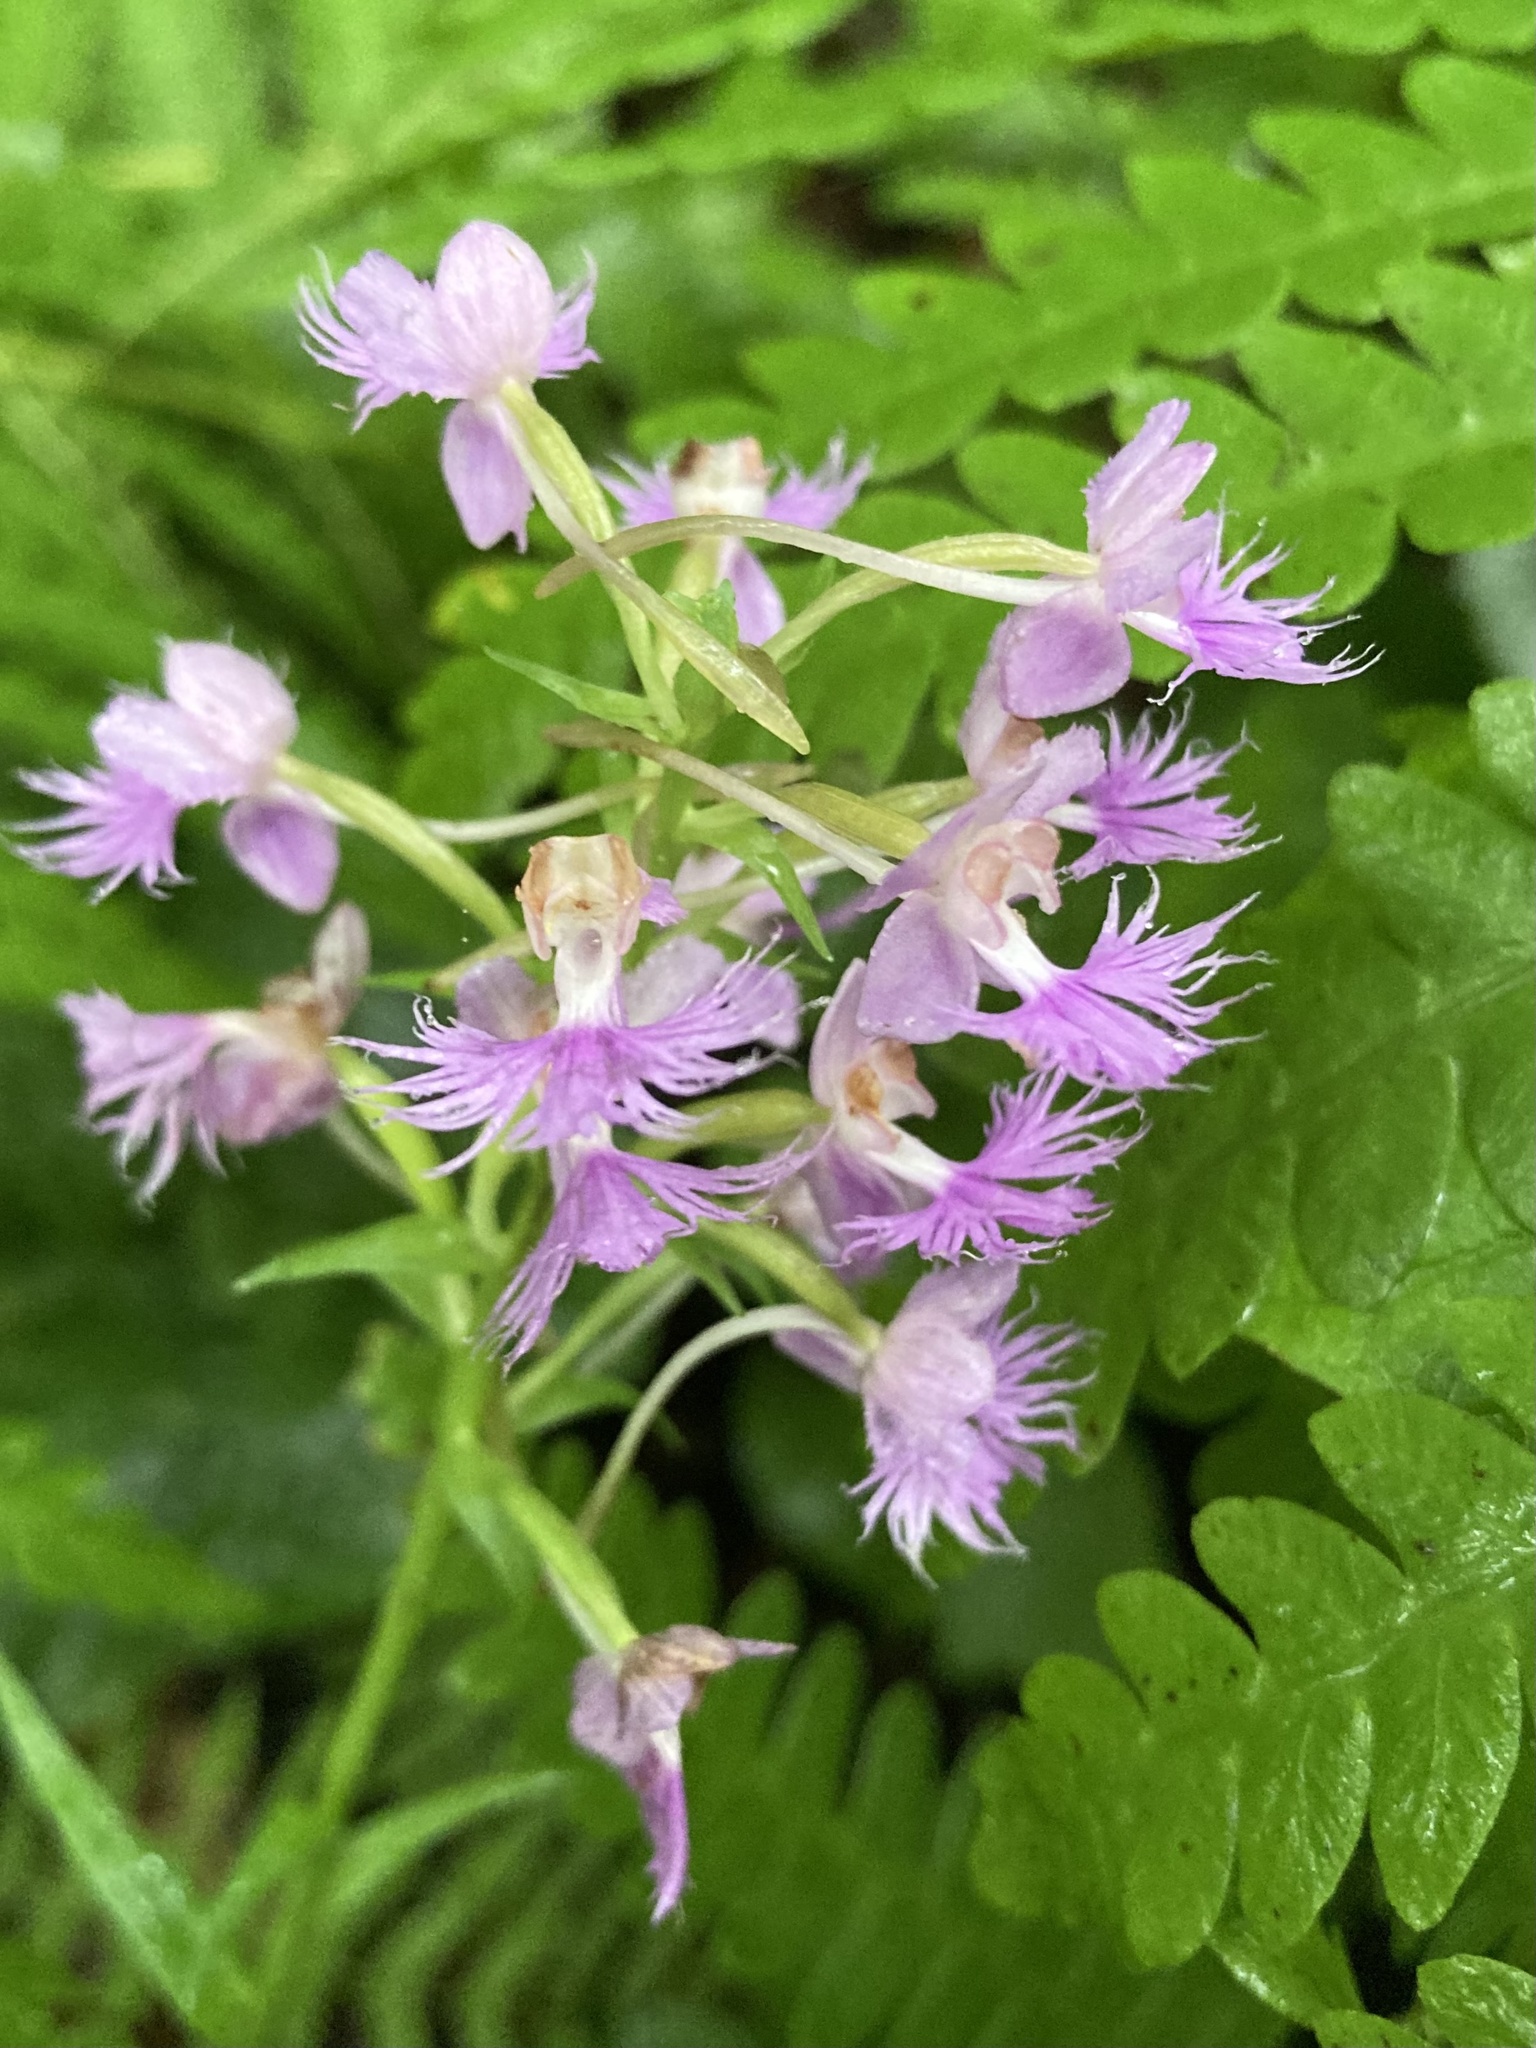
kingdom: Plantae
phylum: Tracheophyta
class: Liliopsida
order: Asparagales
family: Orchidaceae
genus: Platanthera
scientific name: Platanthera grandiflora
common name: Greater purple fringed orchid
